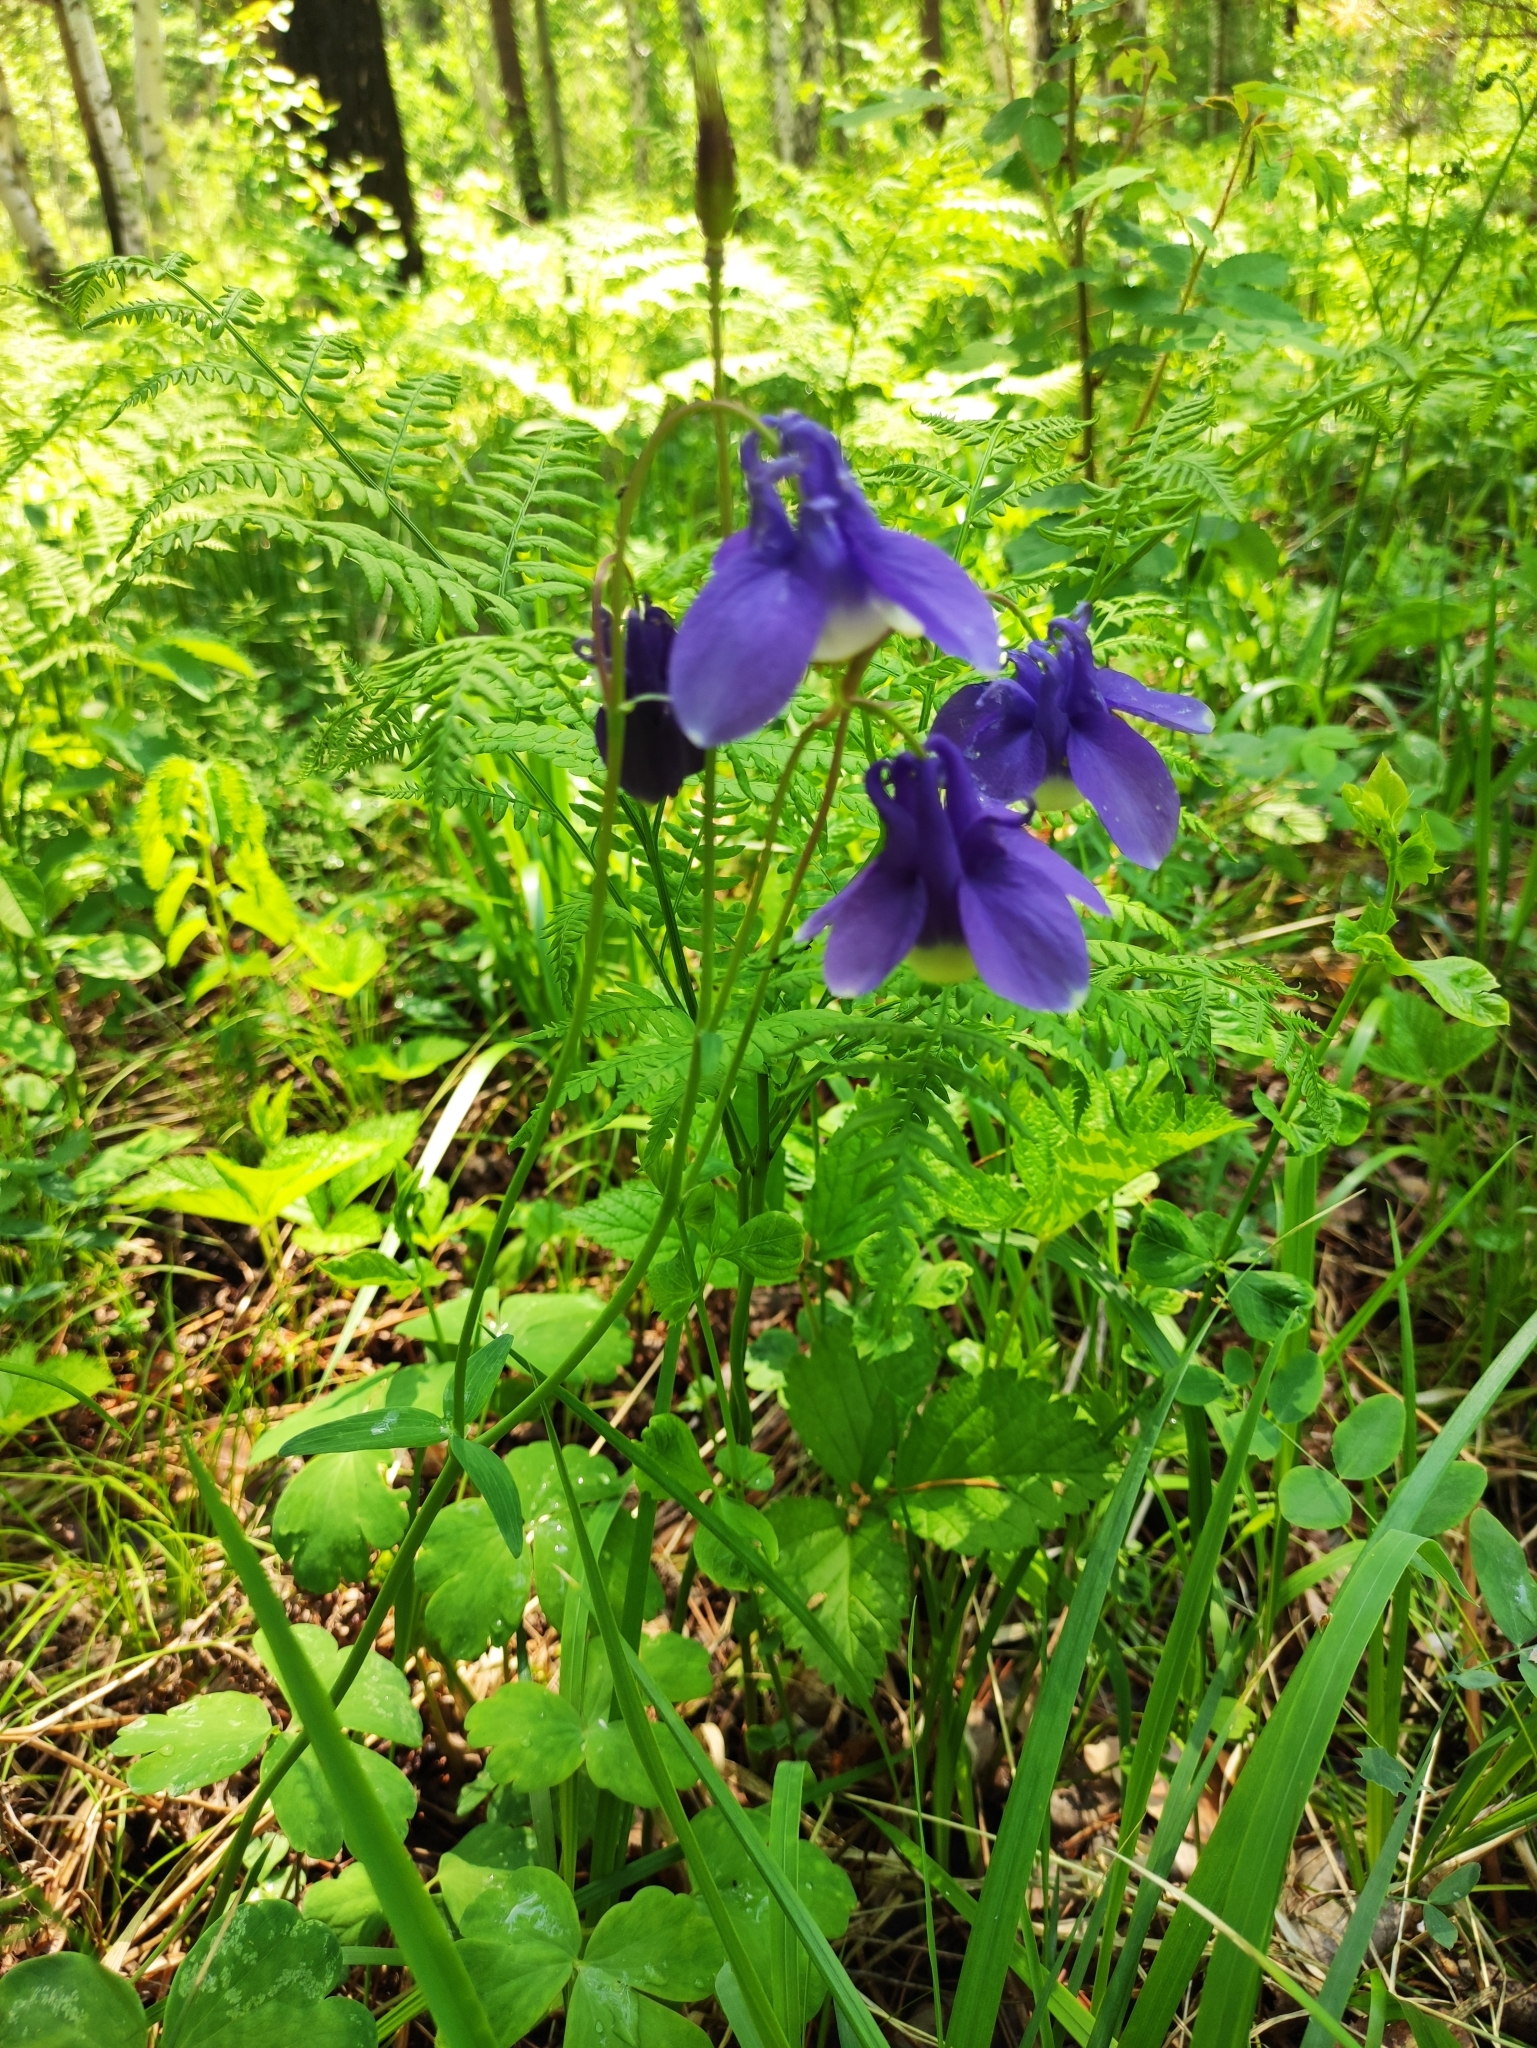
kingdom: Plantae
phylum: Tracheophyta
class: Magnoliopsida
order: Ranunculales
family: Ranunculaceae
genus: Aquilegia
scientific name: Aquilegia sibirica
